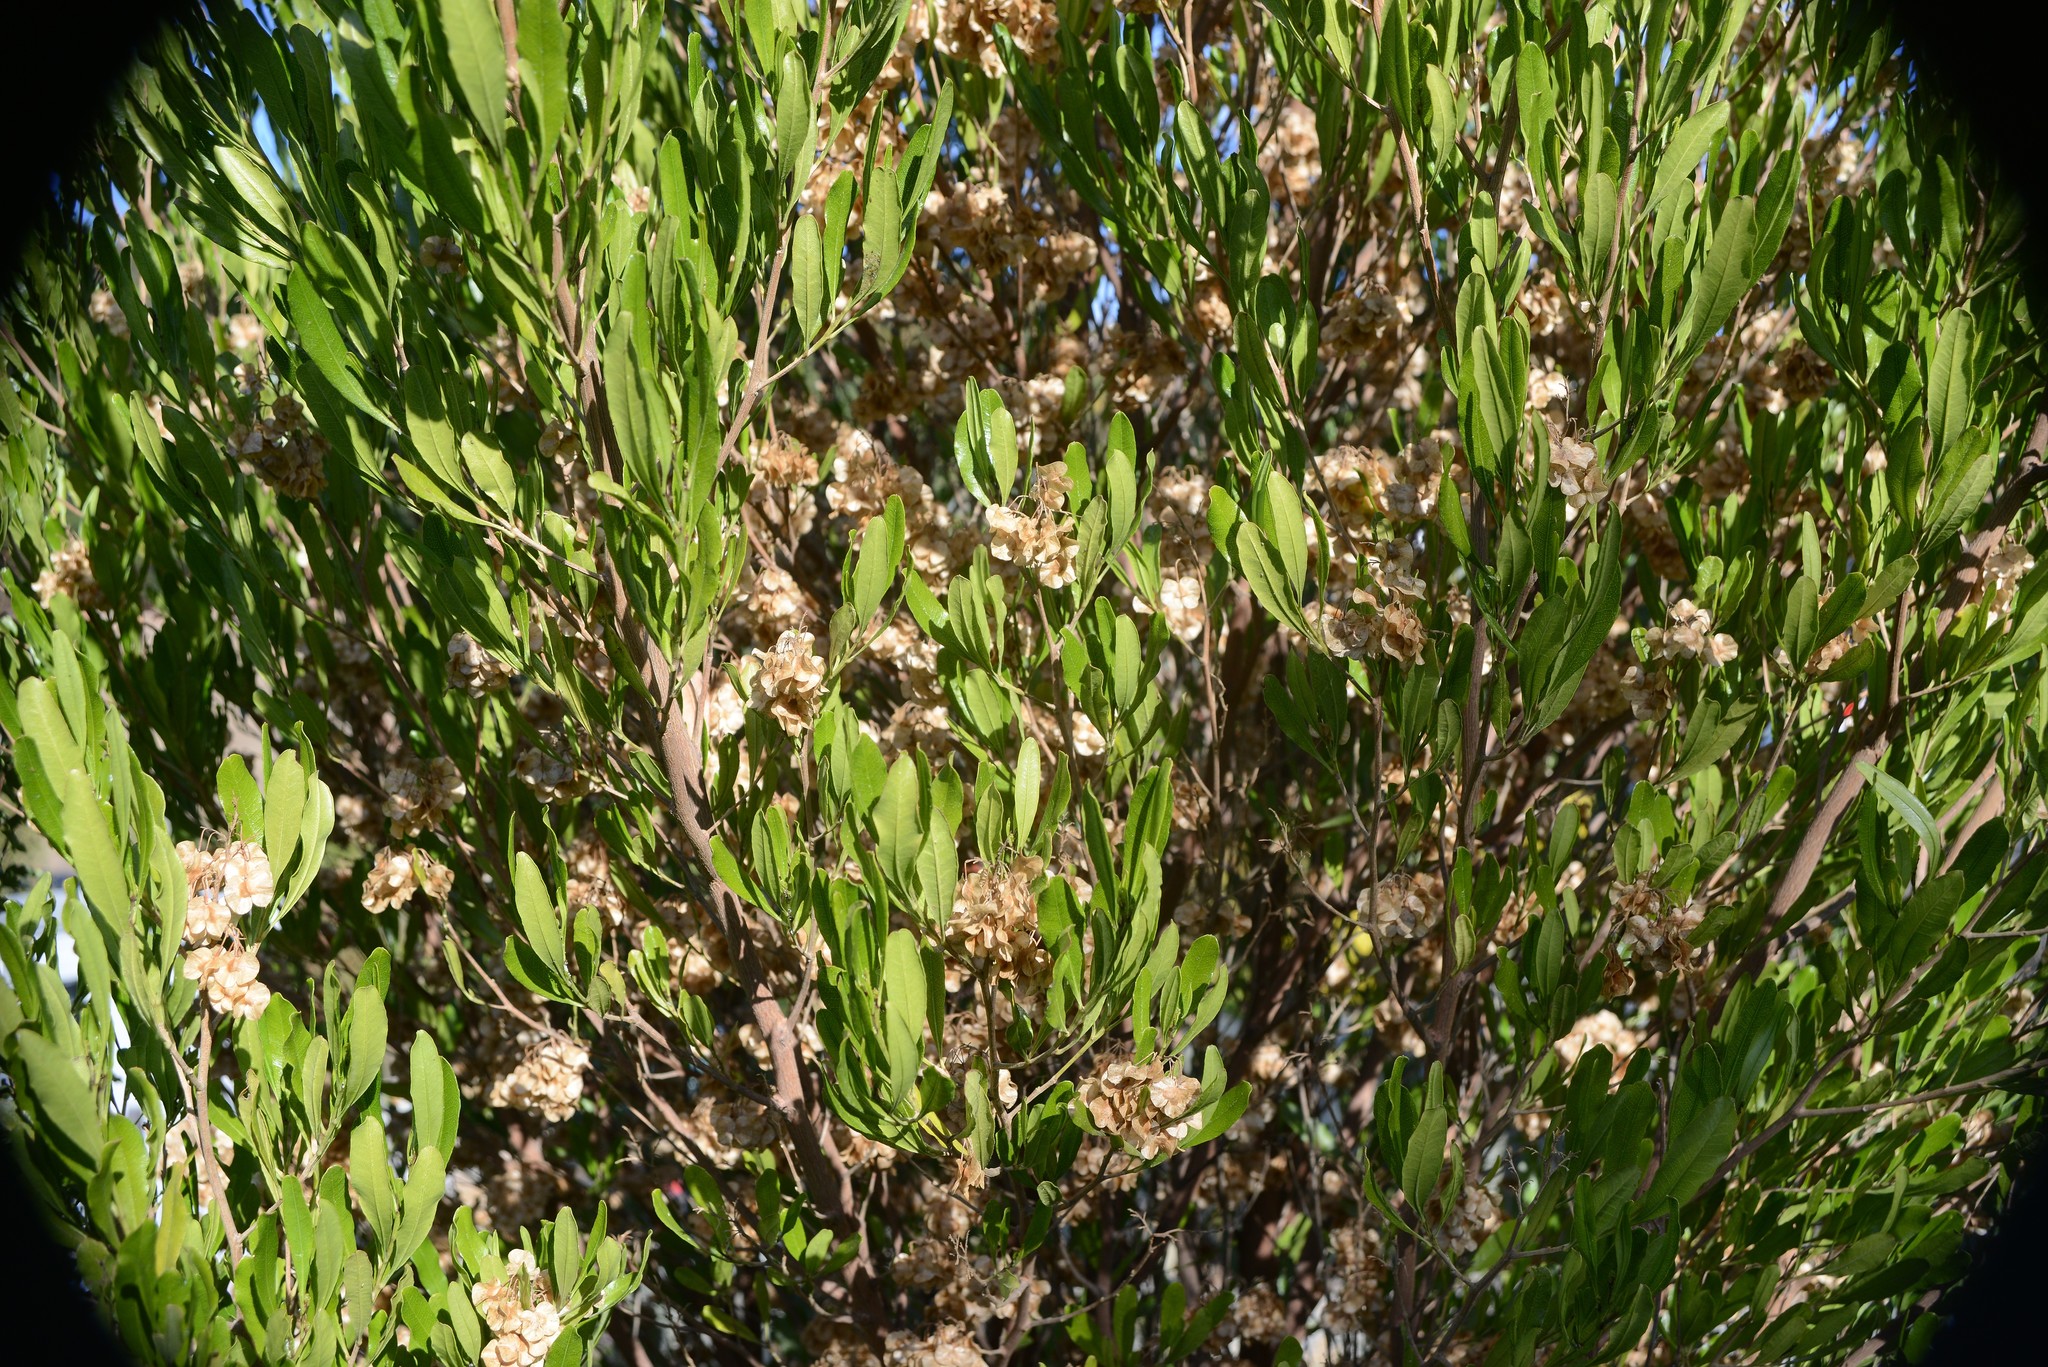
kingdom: Plantae
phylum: Tracheophyta
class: Magnoliopsida
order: Sapindales
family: Sapindaceae
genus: Dodonaea
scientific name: Dodonaea viscosa
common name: Hopbush
